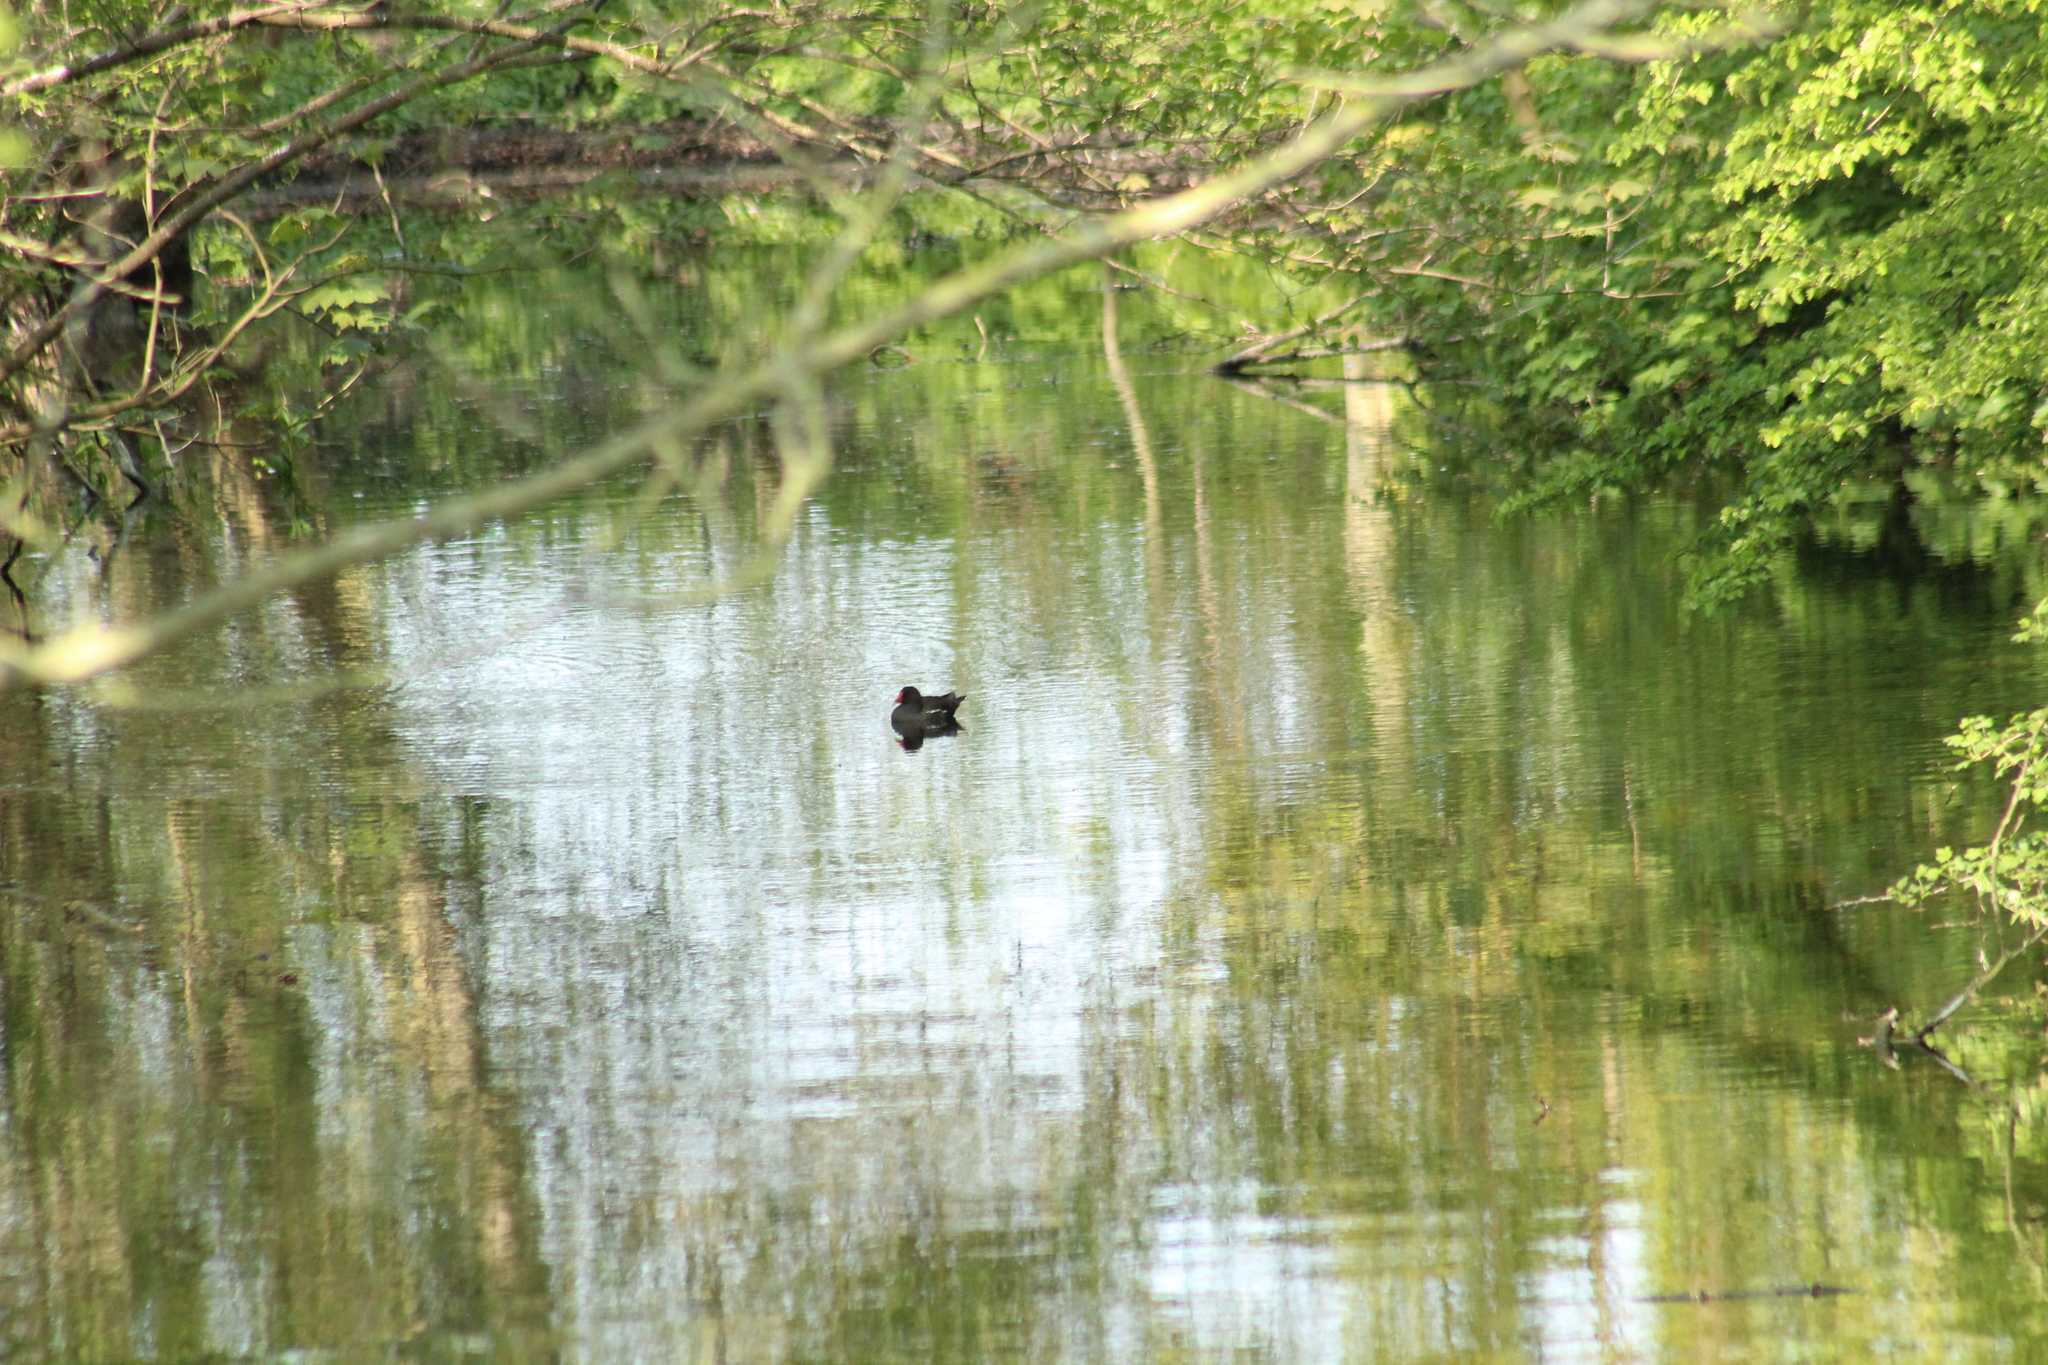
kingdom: Animalia
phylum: Chordata
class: Aves
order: Gruiformes
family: Rallidae
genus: Gallinula
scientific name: Gallinula chloropus
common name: Common moorhen
